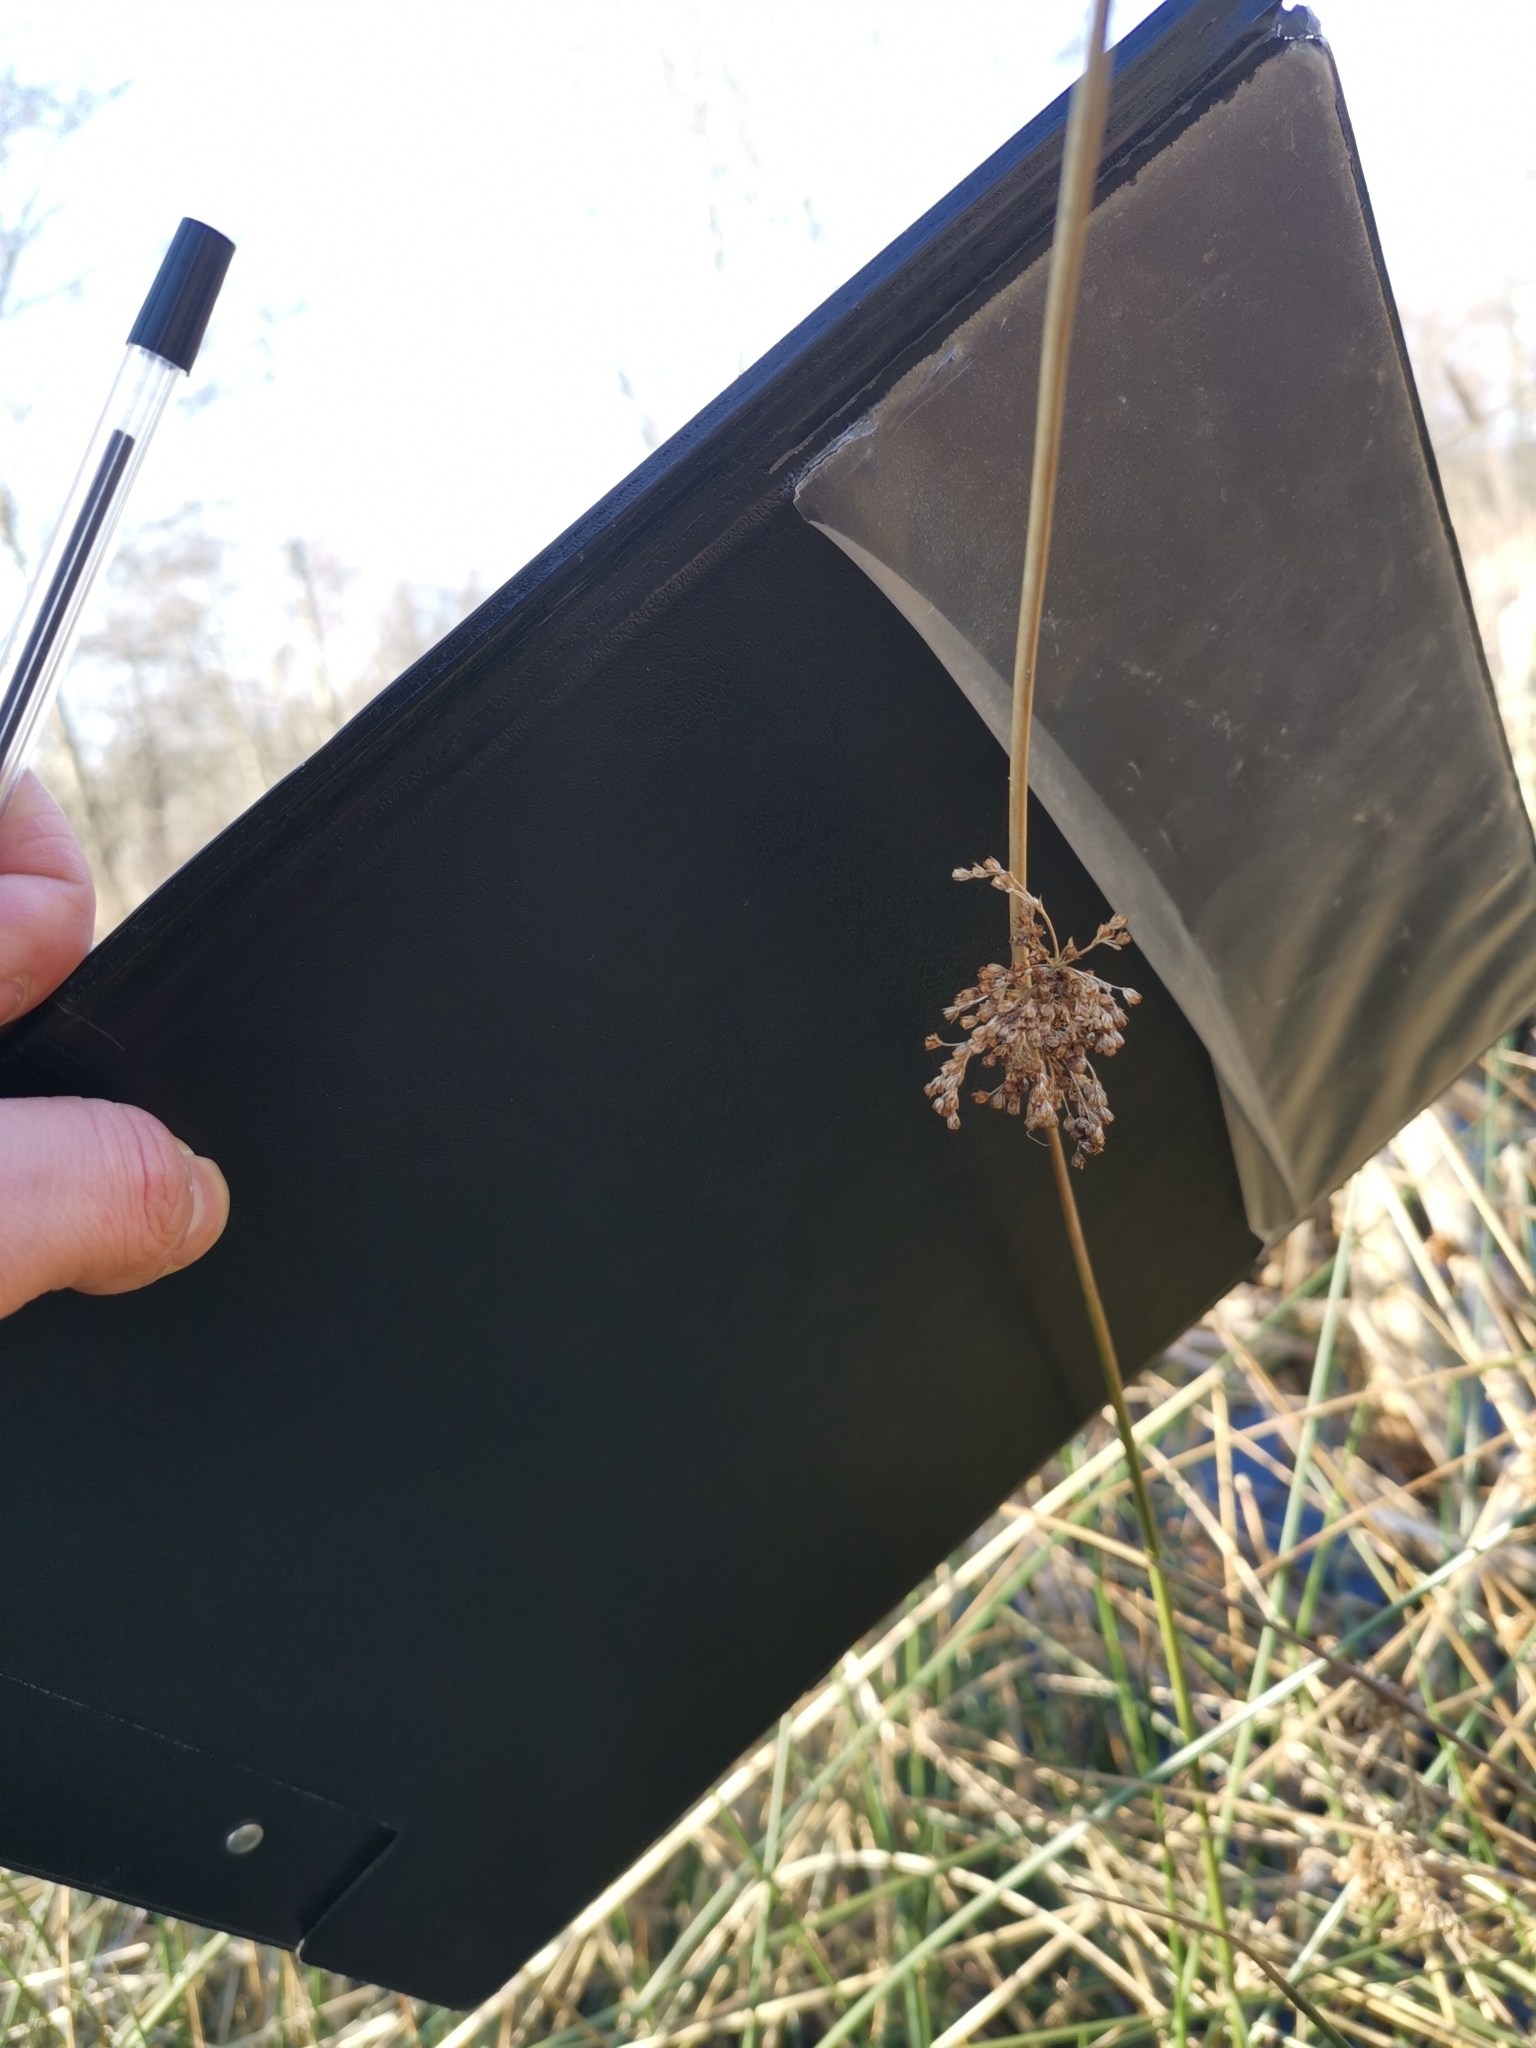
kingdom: Plantae
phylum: Tracheophyta
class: Liliopsida
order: Poales
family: Juncaceae
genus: Juncus
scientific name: Juncus effusus
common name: Soft rush
